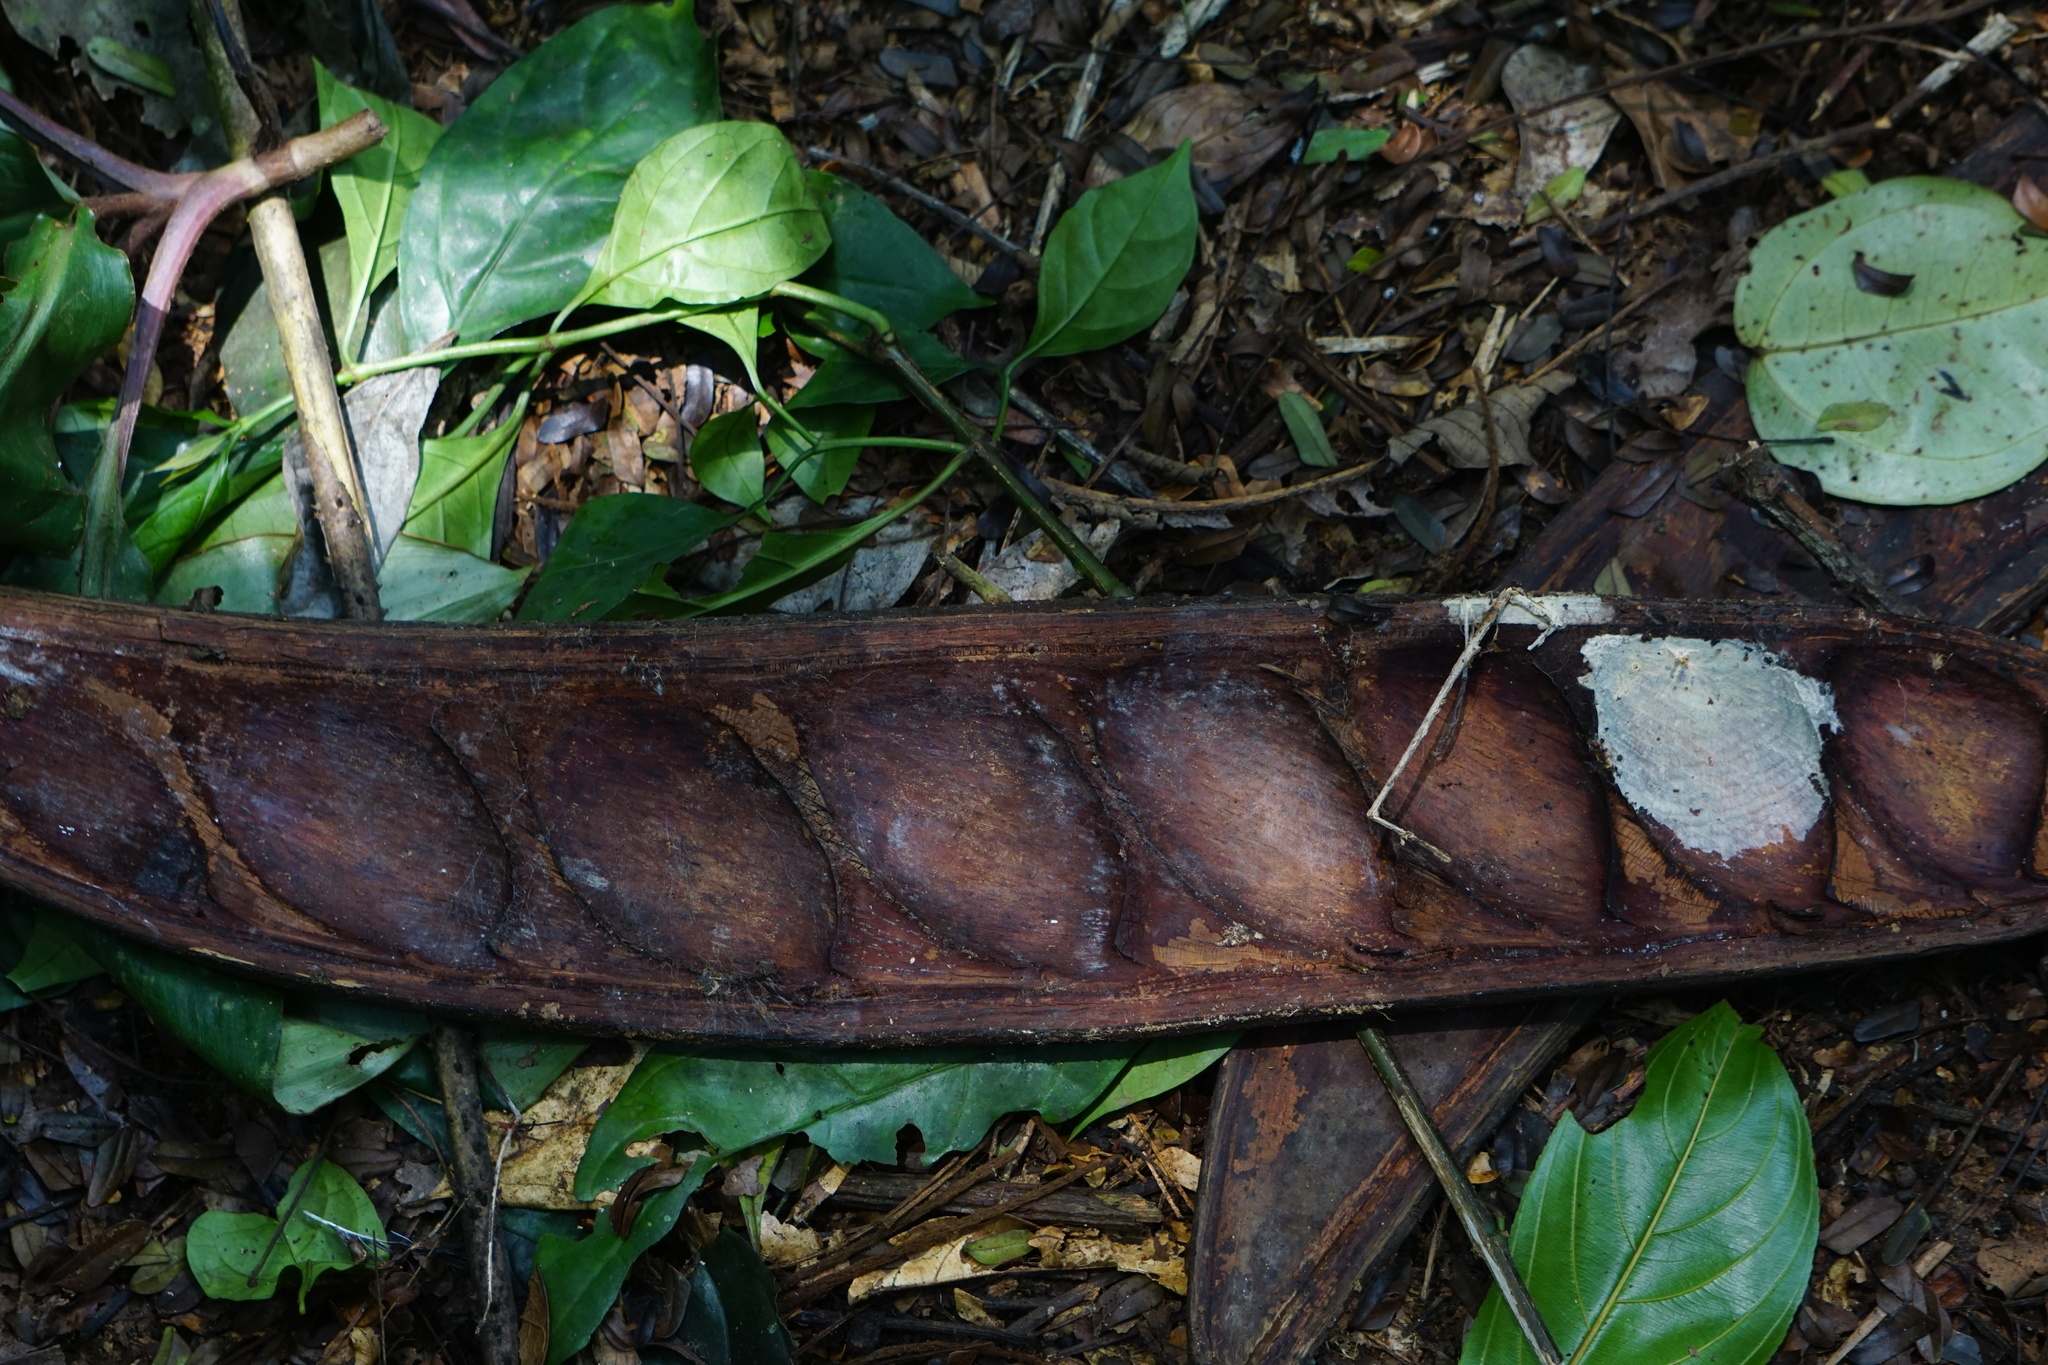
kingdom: Plantae
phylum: Tracheophyta
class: Magnoliopsida
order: Fabales
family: Fabaceae
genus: Pentaclethra
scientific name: Pentaclethra macrophylla
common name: African oil bean
